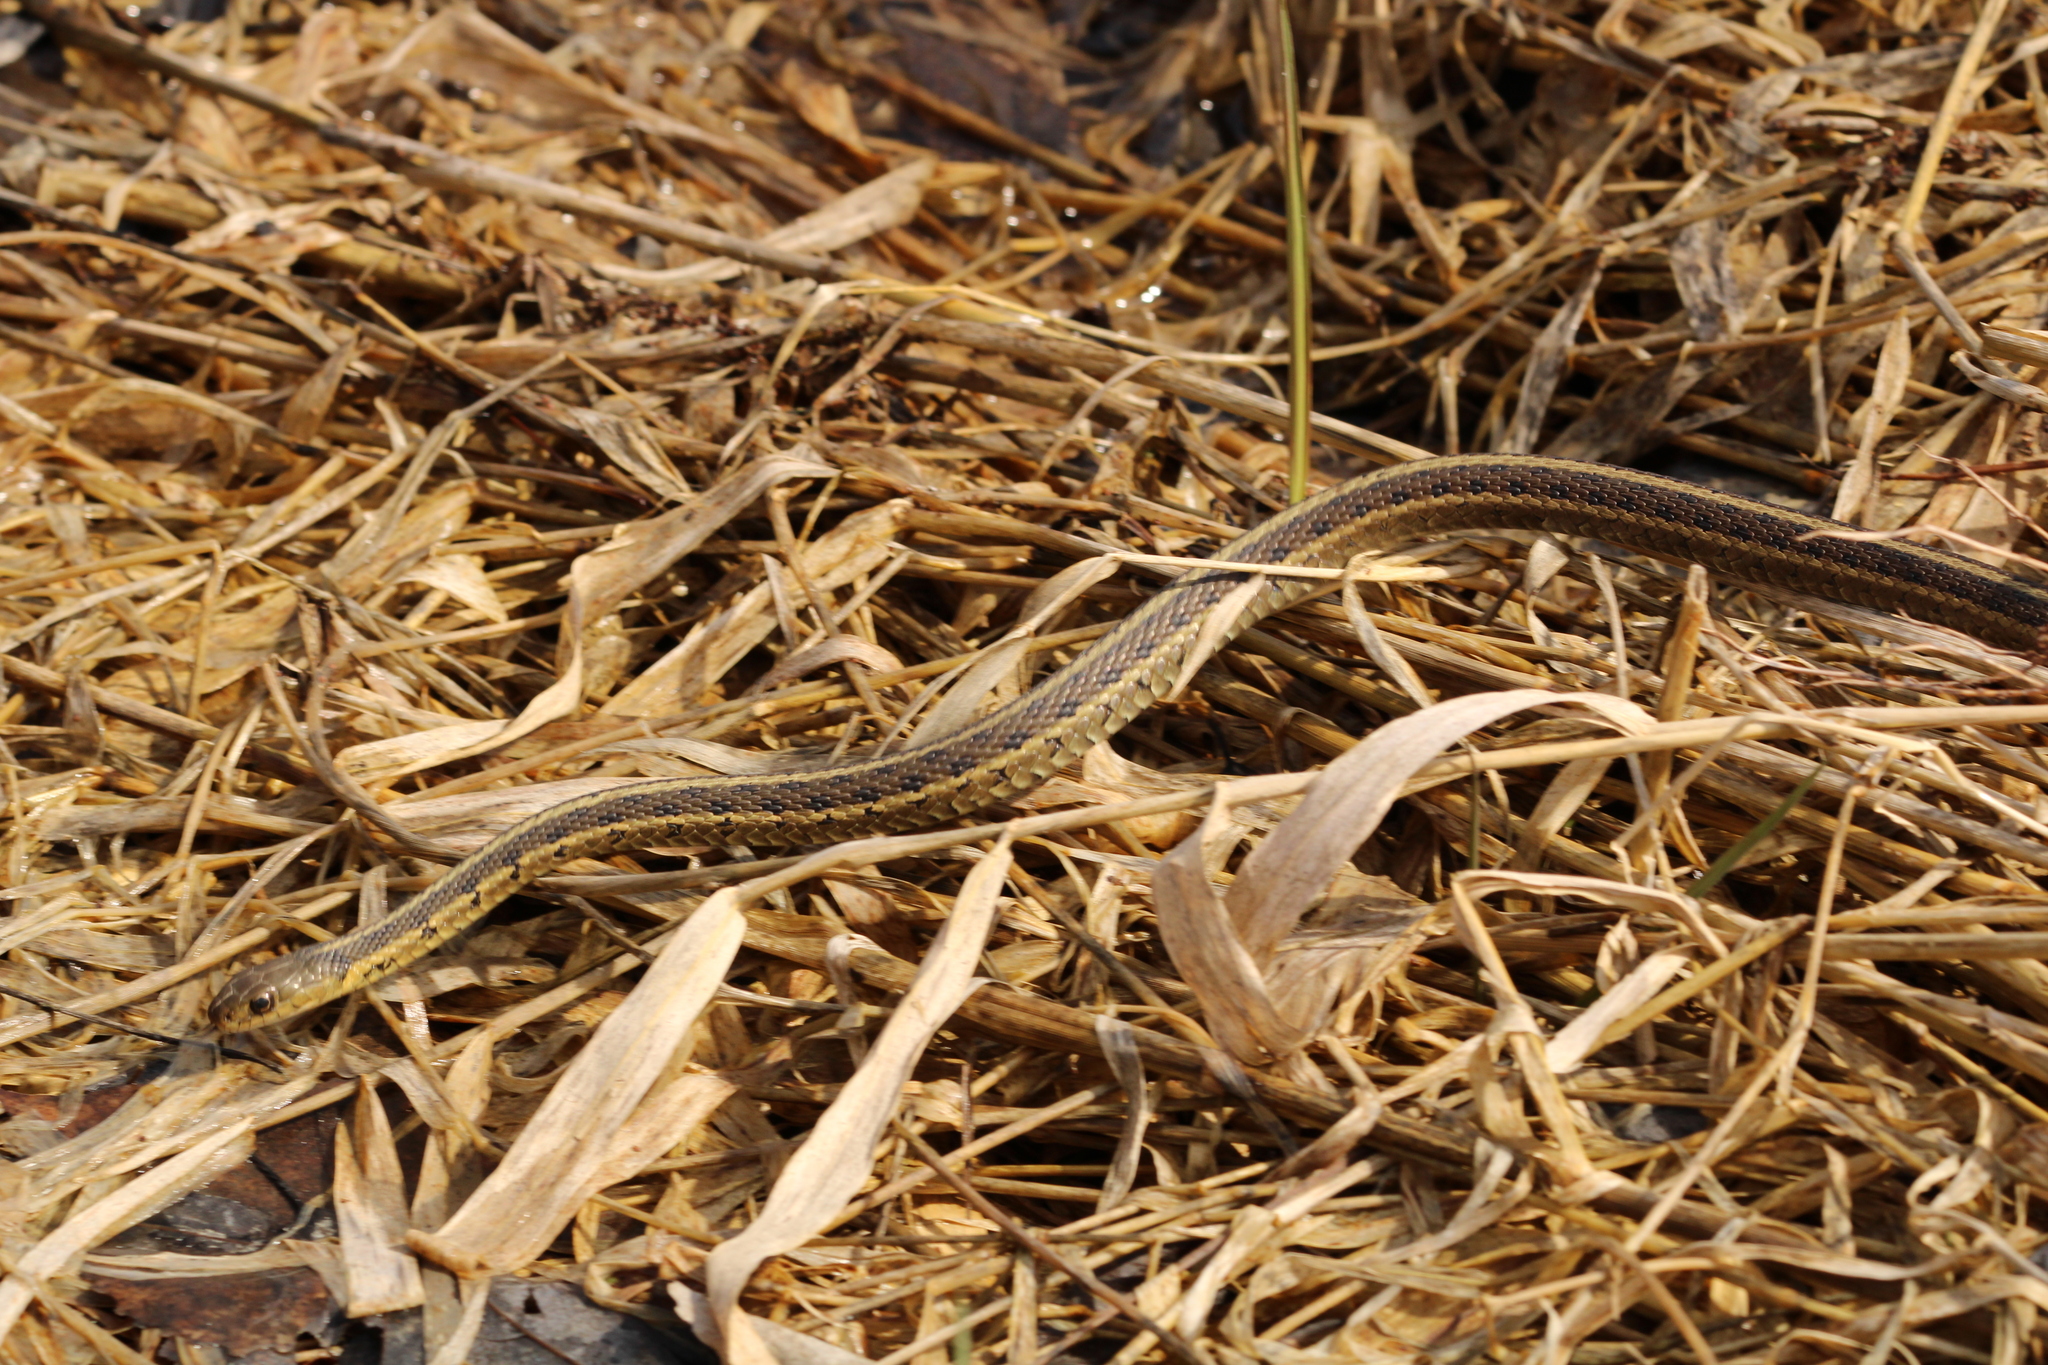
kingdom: Animalia
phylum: Chordata
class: Squamata
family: Colubridae
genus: Thamnophis
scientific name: Thamnophis sirtalis
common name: Common garter snake
